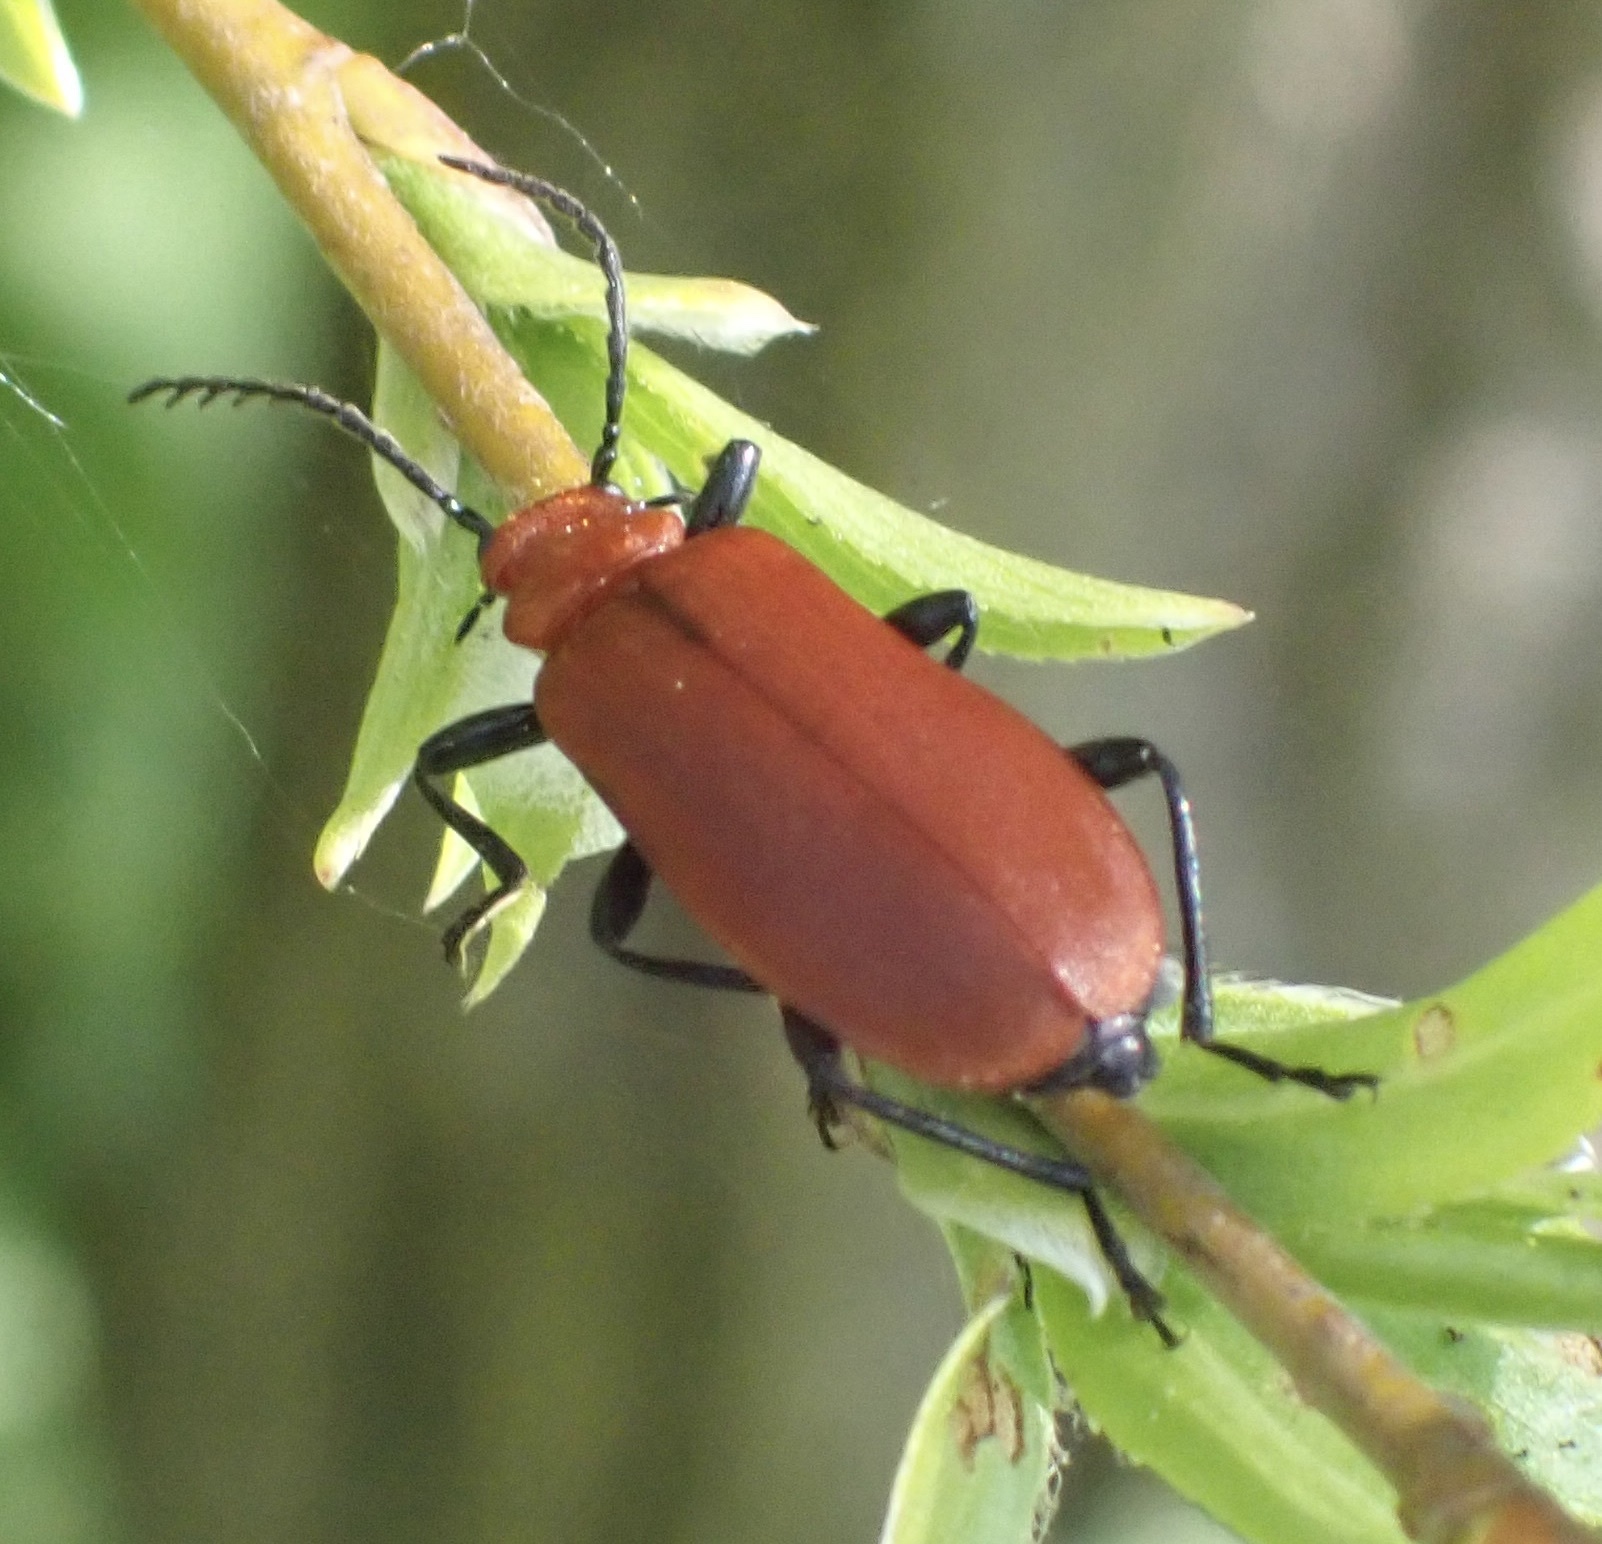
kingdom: Animalia
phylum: Arthropoda
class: Insecta
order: Coleoptera
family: Pyrochroidae
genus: Pyrochroa
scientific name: Pyrochroa serraticornis
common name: Red-headed cardinal beetle
